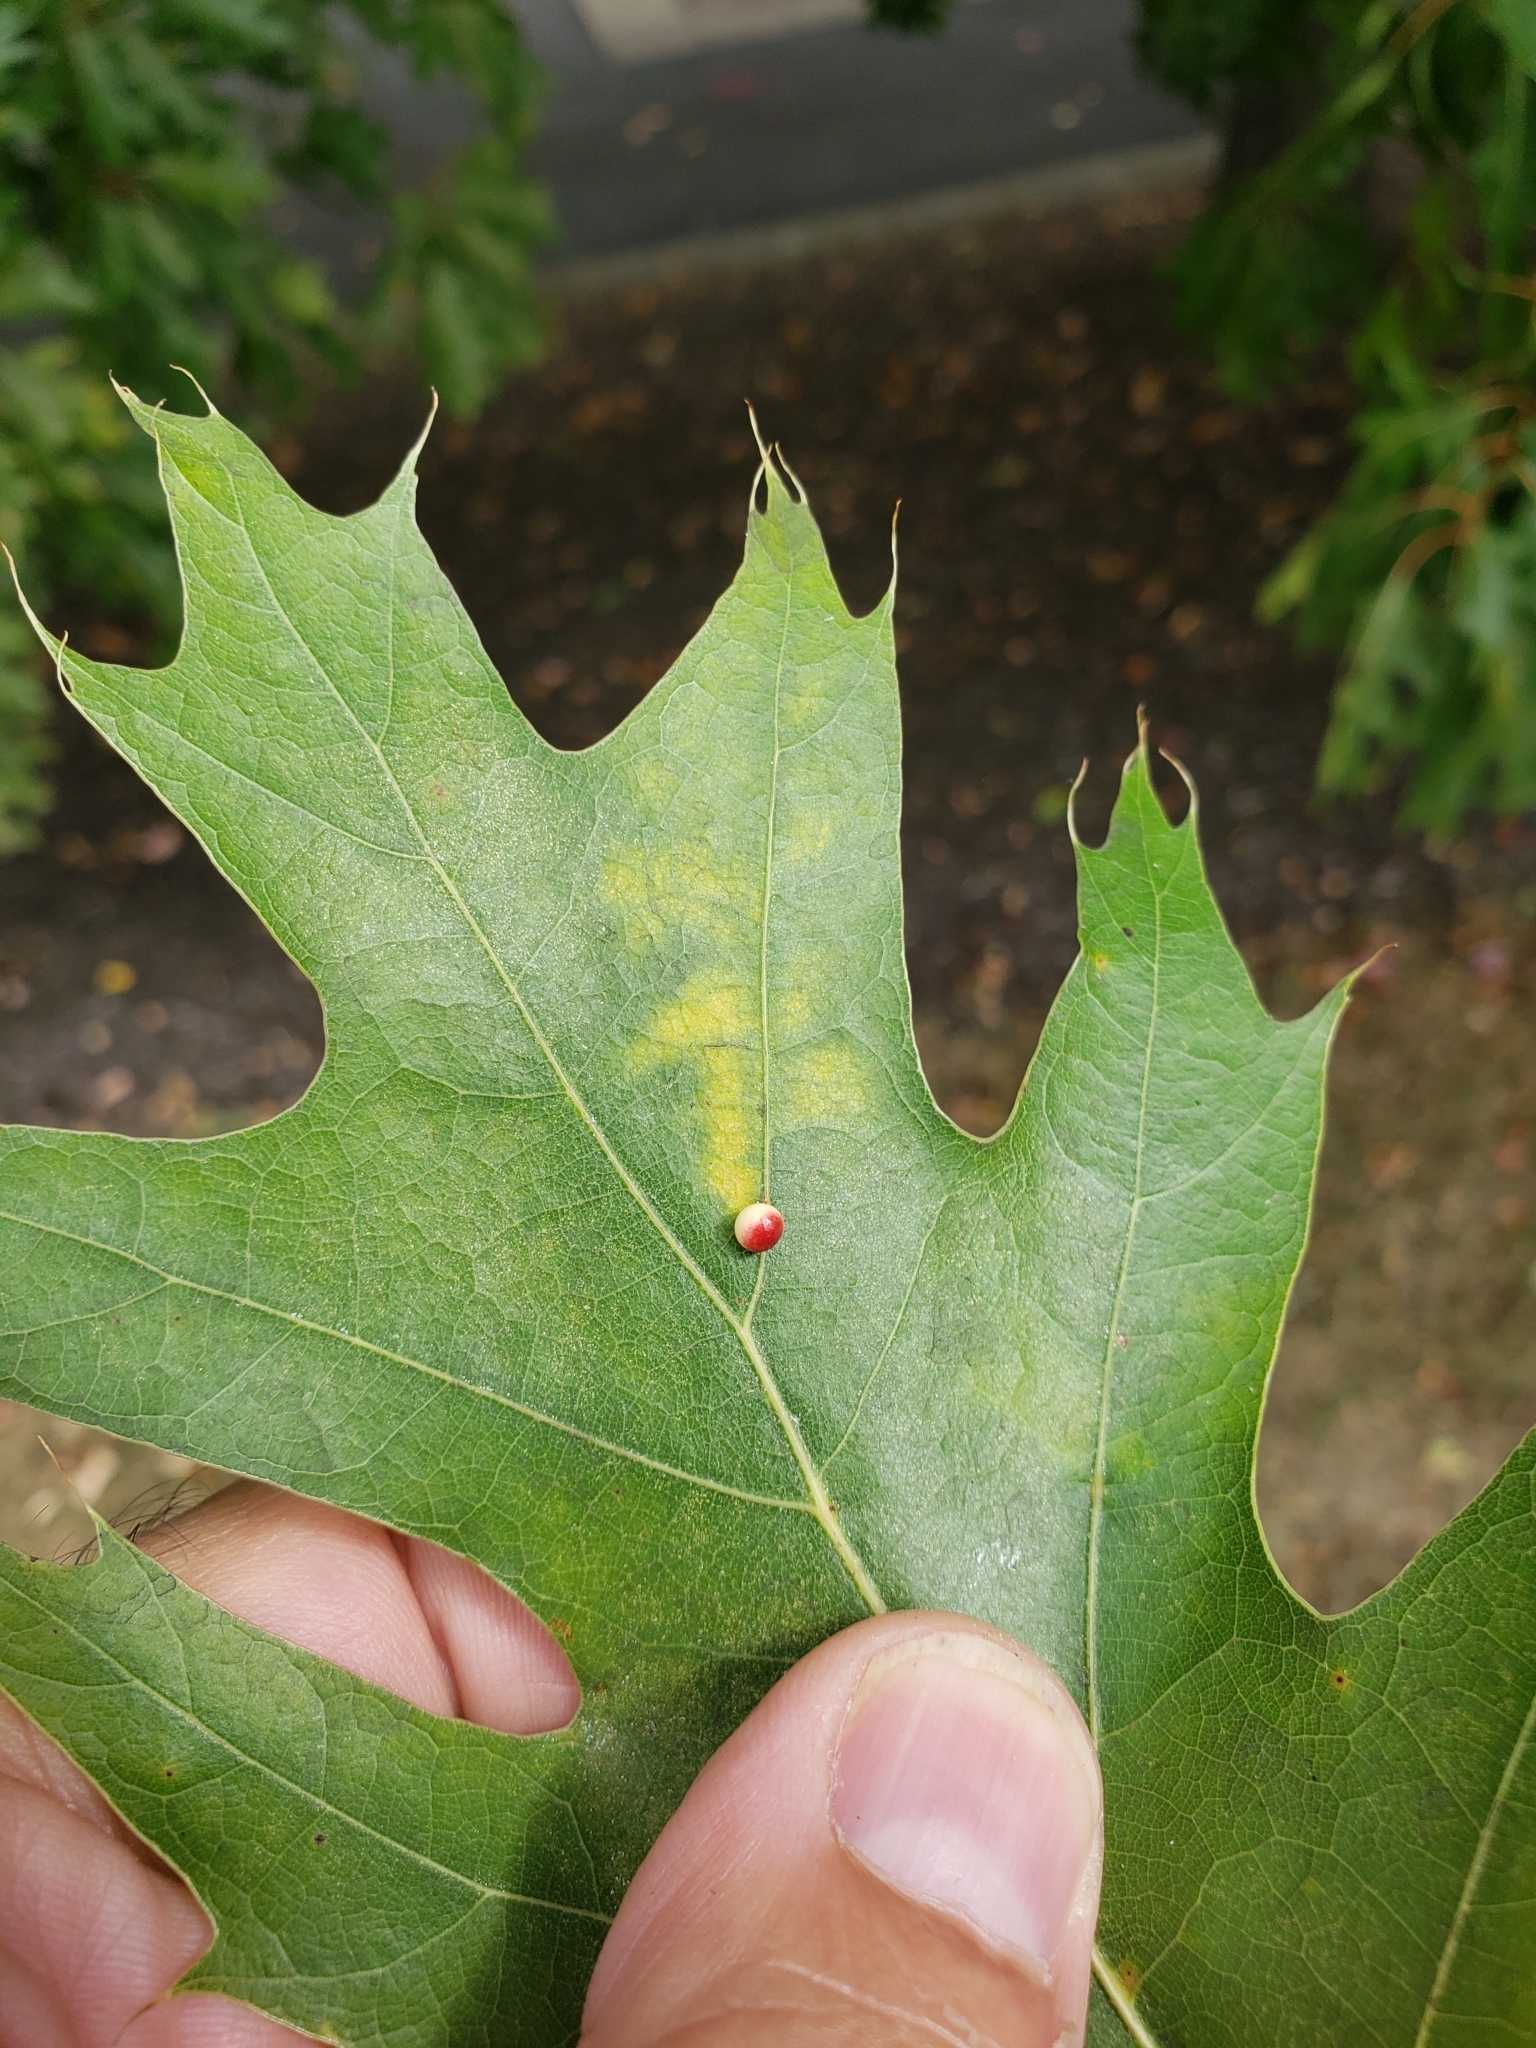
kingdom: Animalia
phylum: Arthropoda
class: Insecta
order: Hymenoptera
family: Cynipidae
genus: Zopheroteras
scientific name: Zopheroteras
